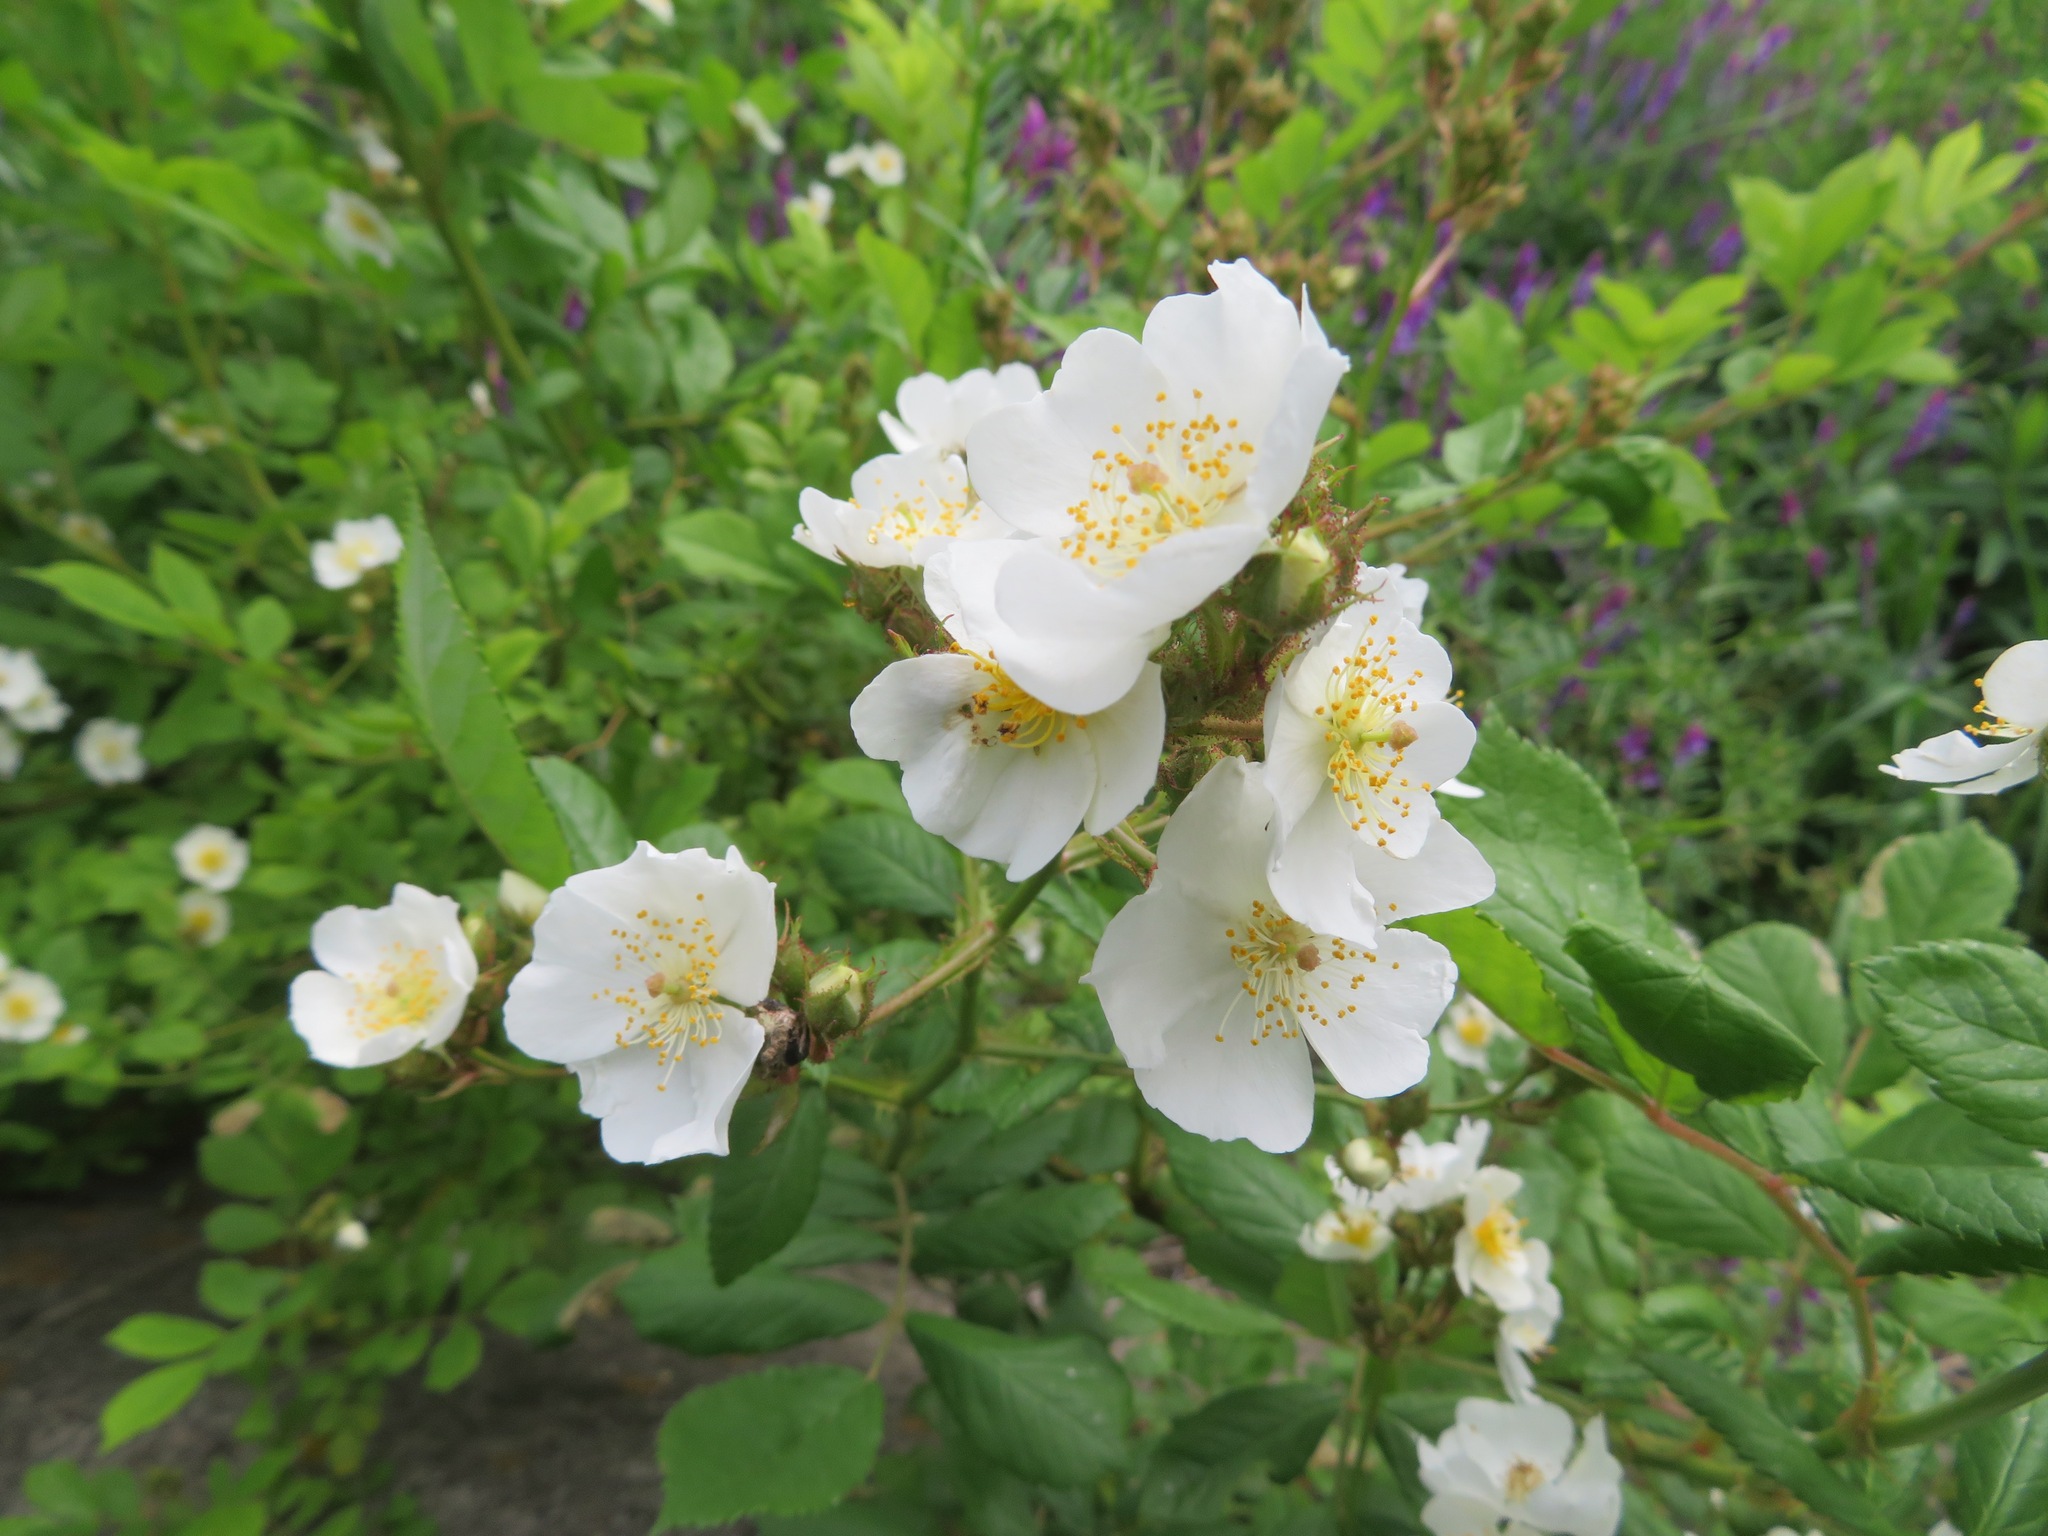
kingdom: Plantae
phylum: Tracheophyta
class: Magnoliopsida
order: Rosales
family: Rosaceae
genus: Rosa
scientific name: Rosa multiflora
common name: Multiflora rose
